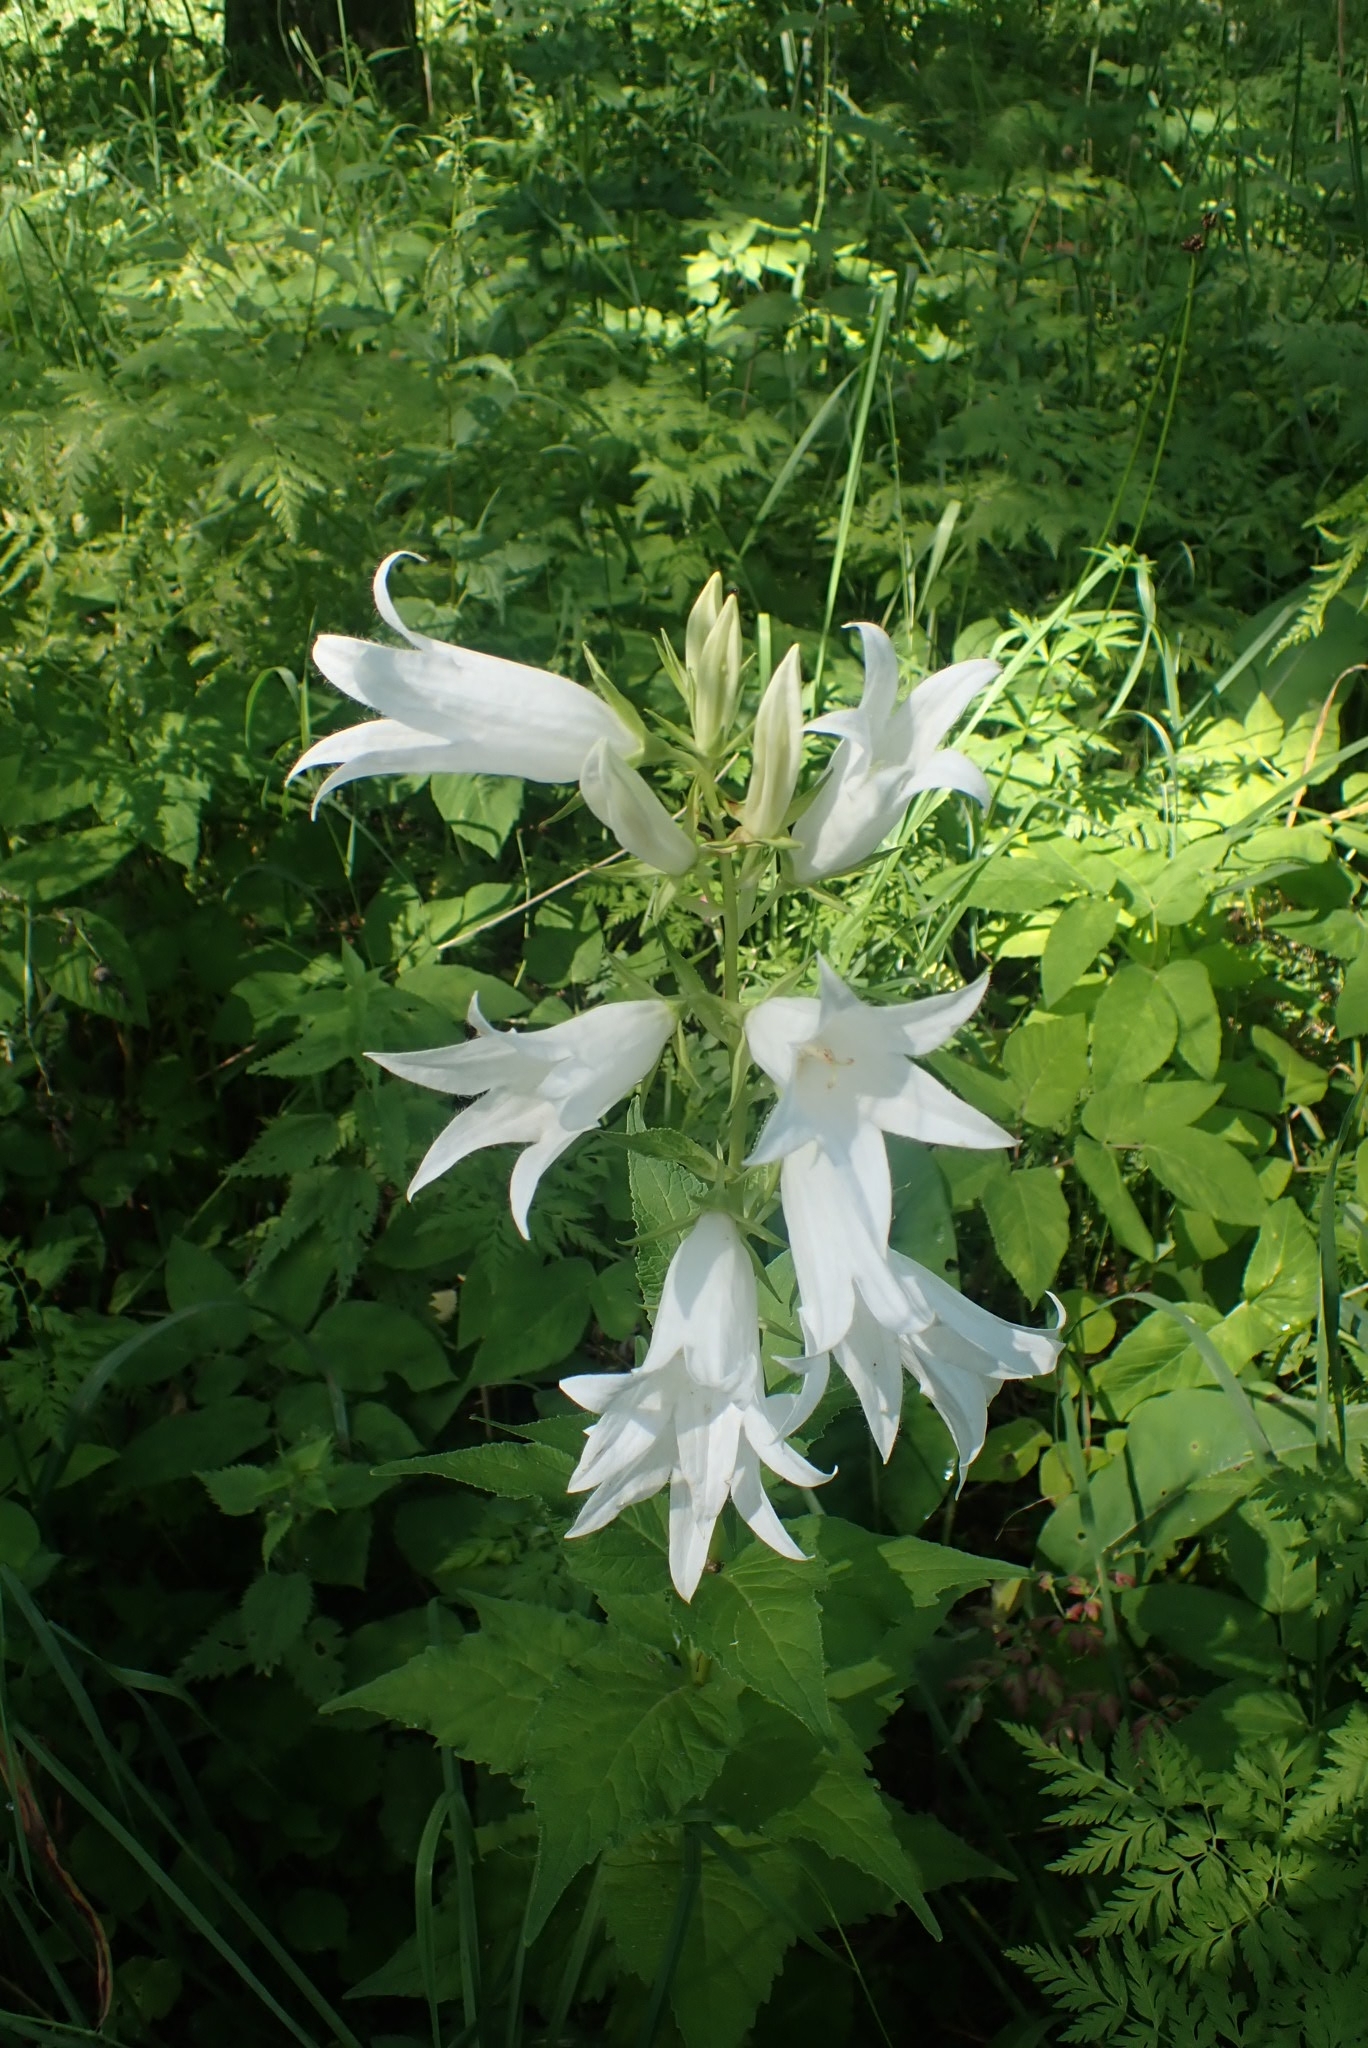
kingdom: Plantae
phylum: Tracheophyta
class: Magnoliopsida
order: Asterales
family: Campanulaceae
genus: Campanula
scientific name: Campanula latifolia
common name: Giant bellflower
